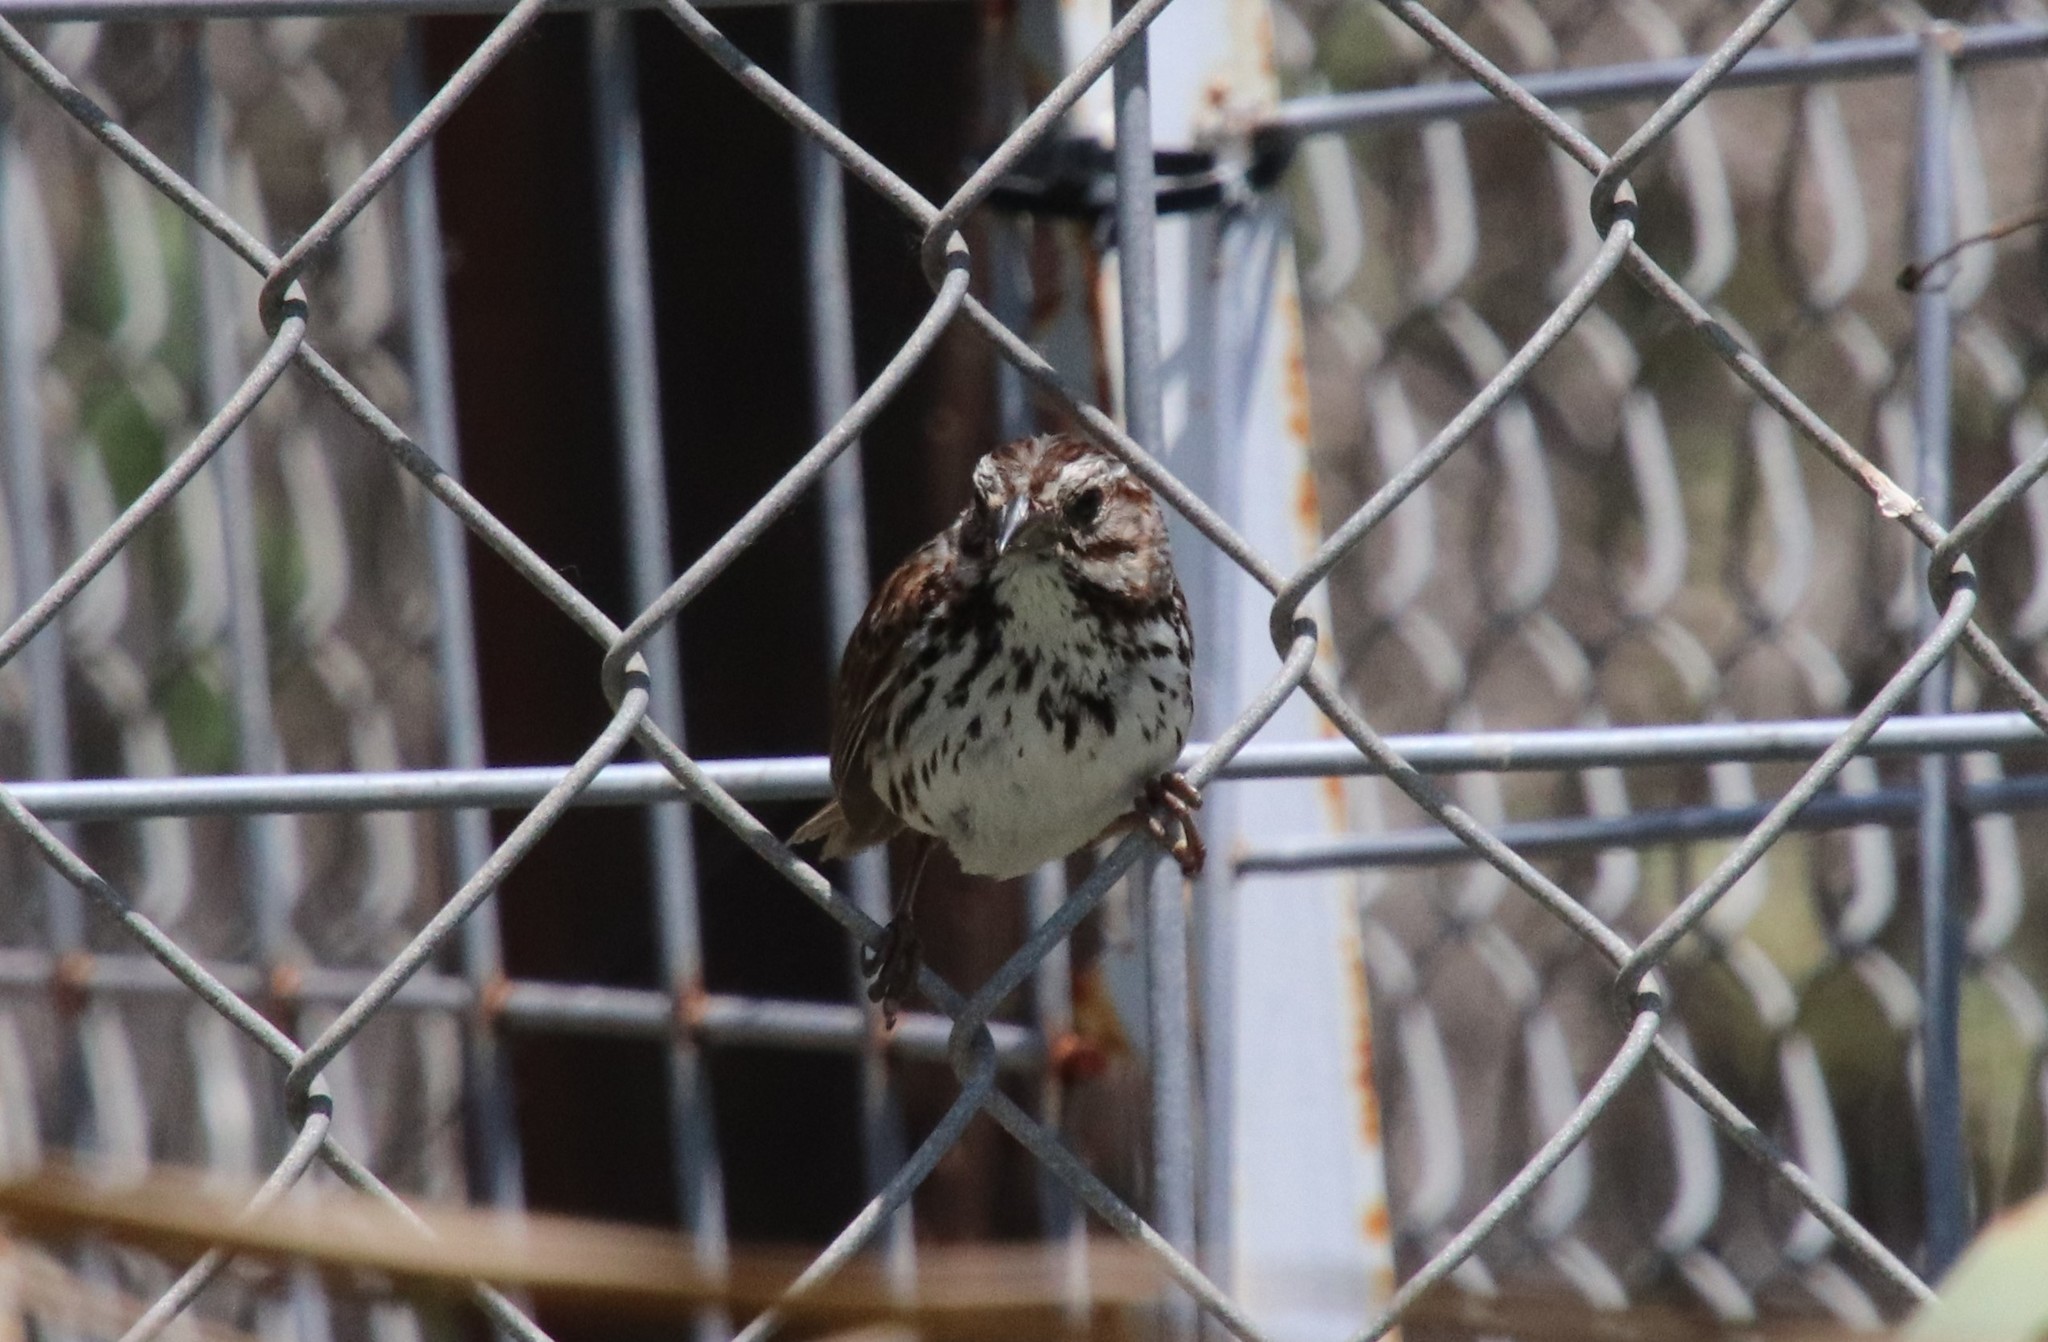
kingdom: Animalia
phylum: Chordata
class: Aves
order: Passeriformes
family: Passerellidae
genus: Melospiza
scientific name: Melospiza melodia
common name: Song sparrow
